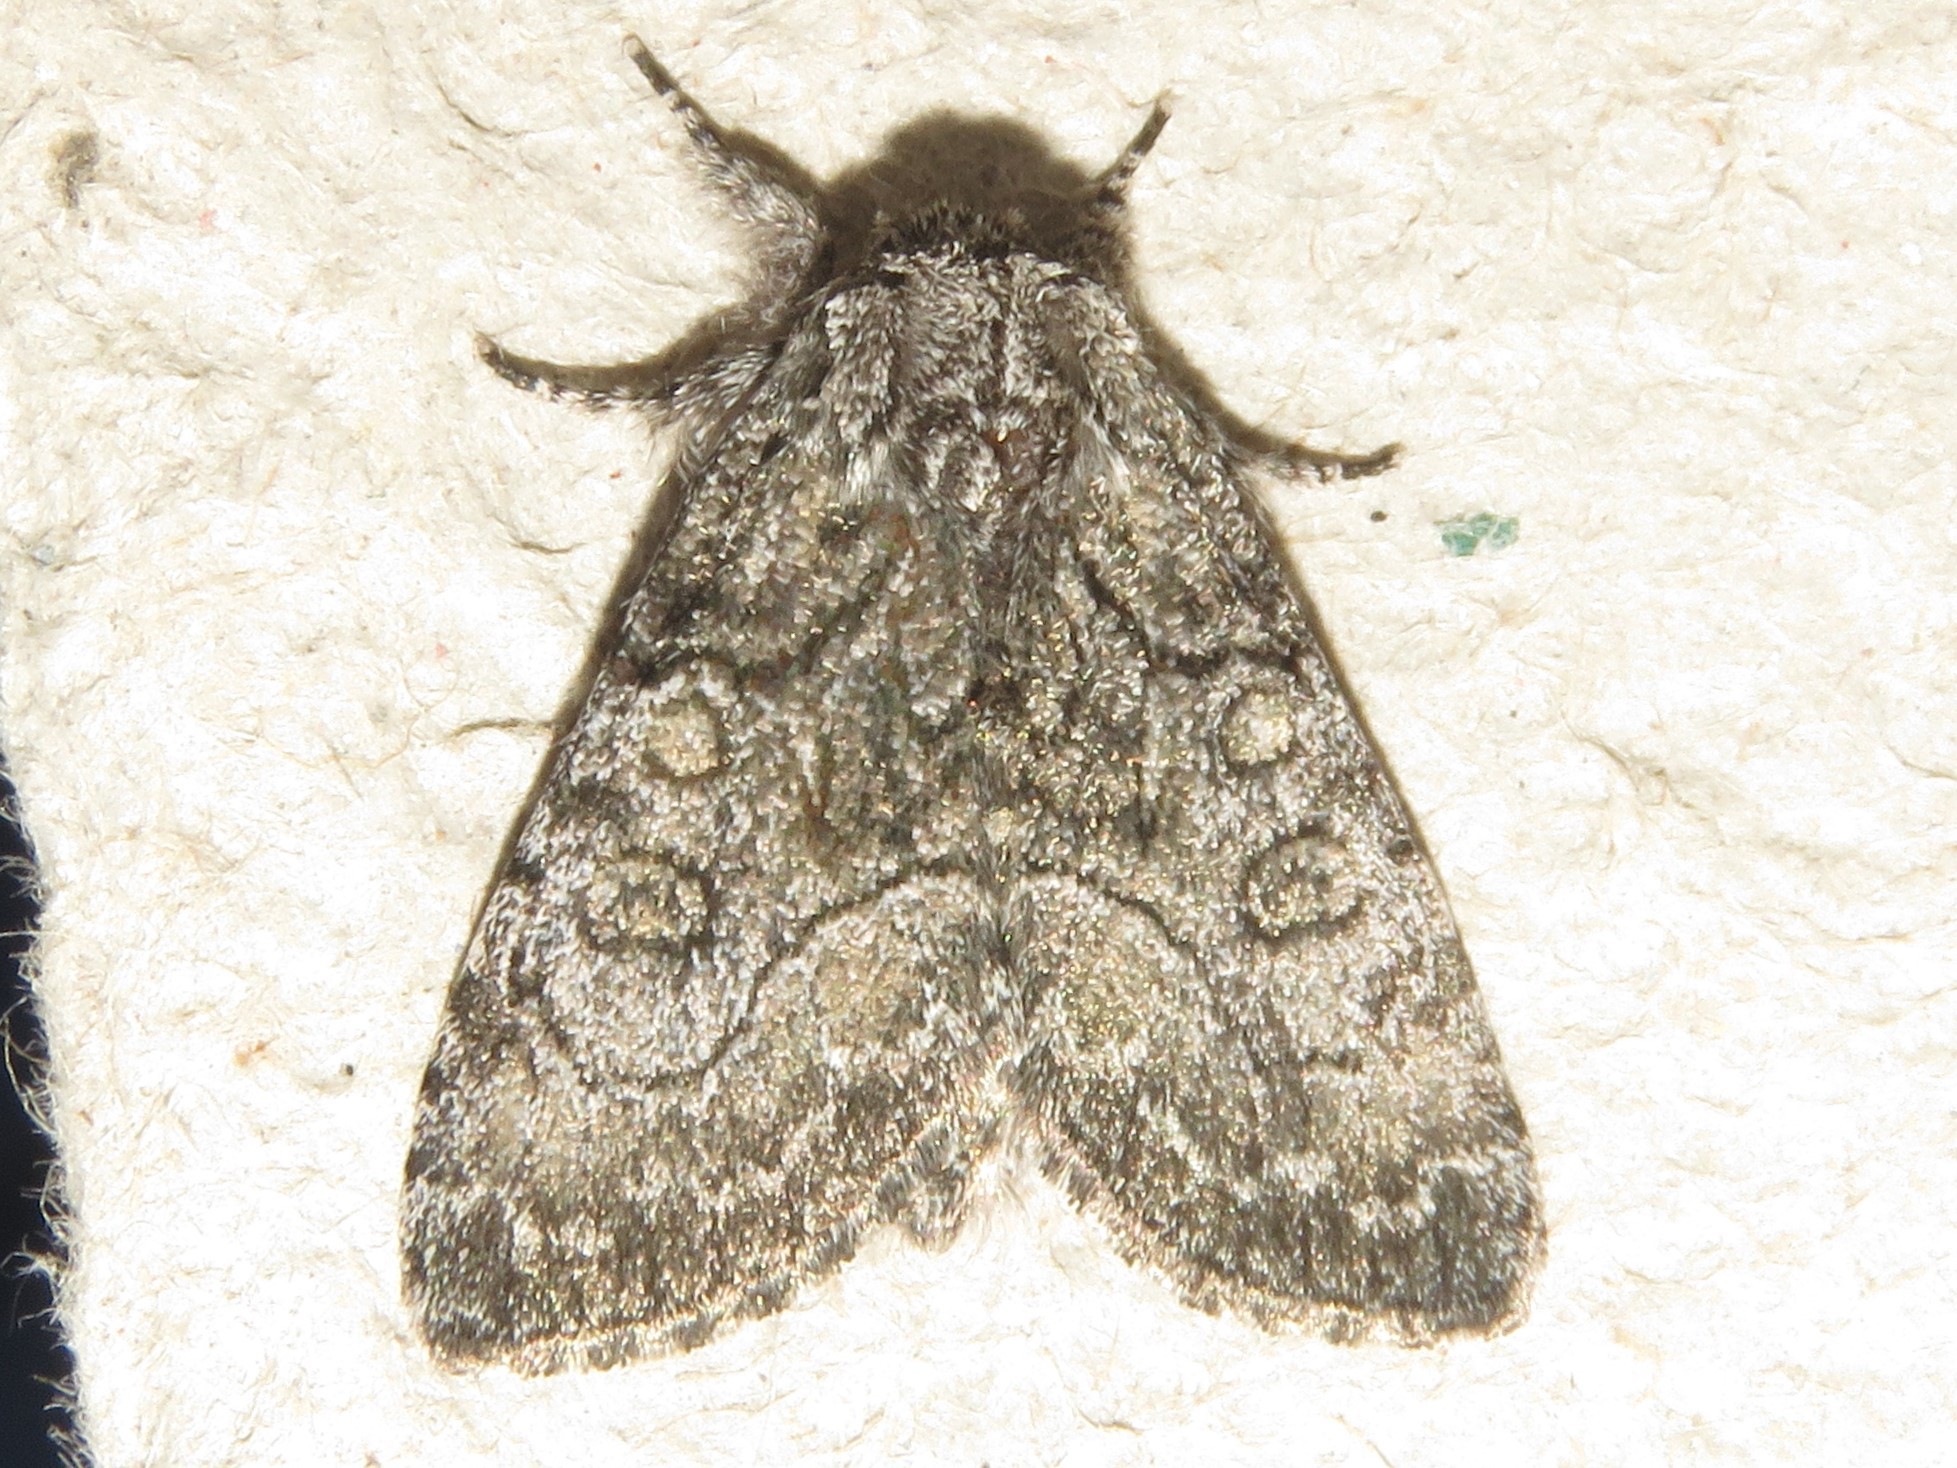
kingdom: Animalia
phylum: Arthropoda
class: Insecta
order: Lepidoptera
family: Noctuidae
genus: Raphia
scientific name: Raphia frater
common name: Brother
